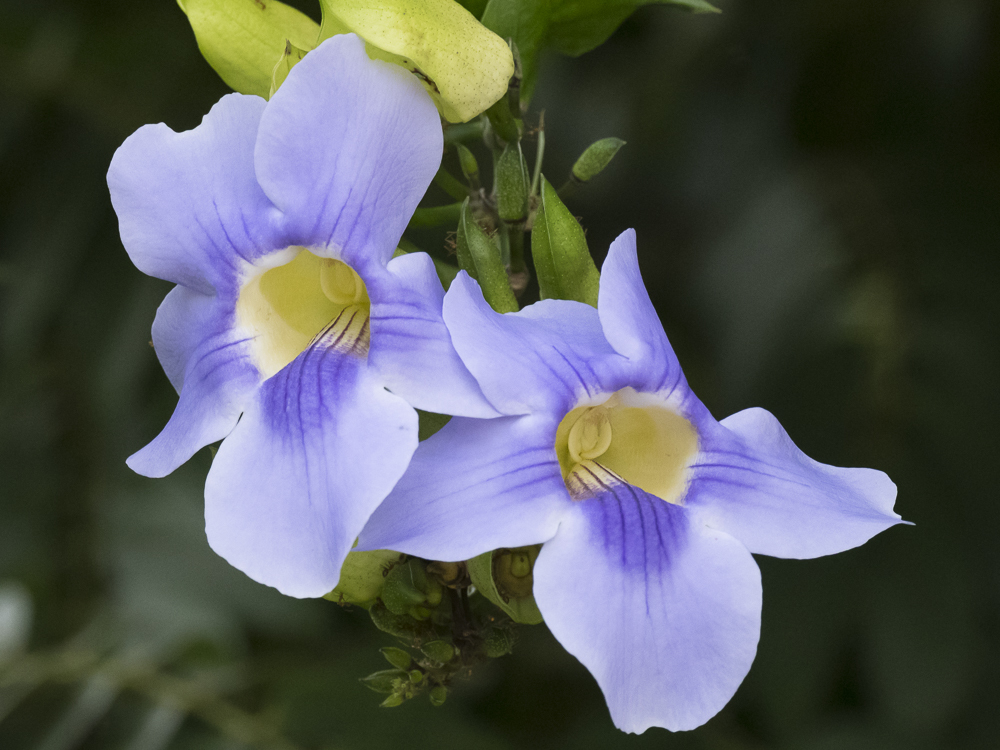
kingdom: Plantae
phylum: Tracheophyta
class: Magnoliopsida
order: Lamiales
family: Acanthaceae
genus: Thunbergia
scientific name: Thunbergia grandiflora
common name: Bengal trumpet
